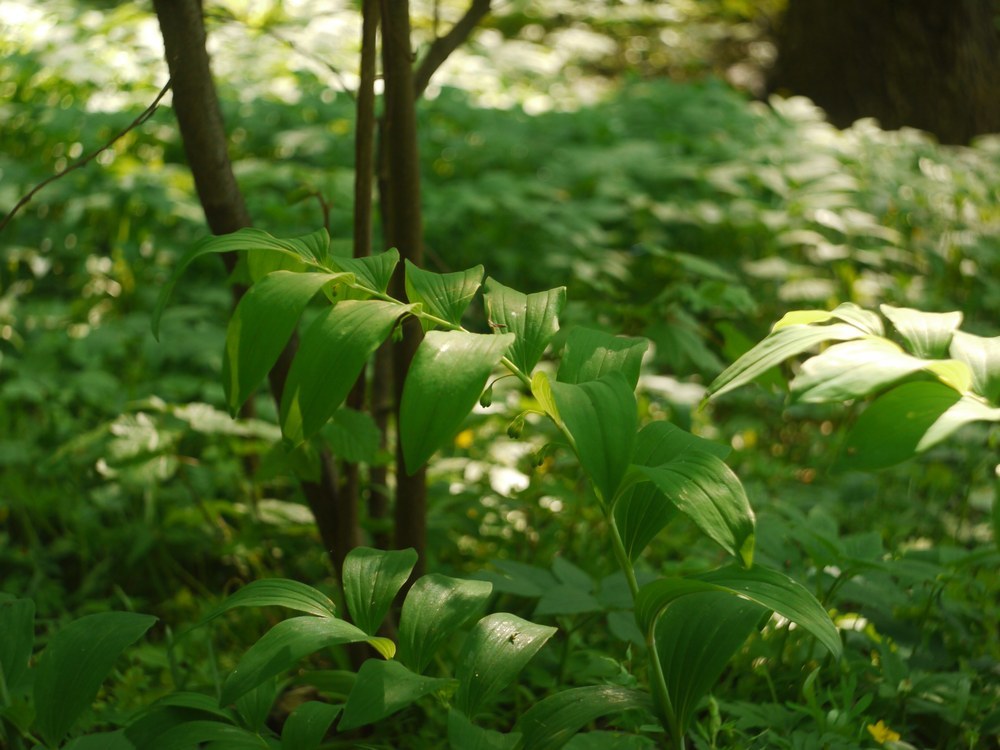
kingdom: Plantae
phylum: Tracheophyta
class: Liliopsida
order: Asparagales
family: Asparagaceae
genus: Polygonatum
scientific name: Polygonatum multiflorum
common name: Solomon's-seal
